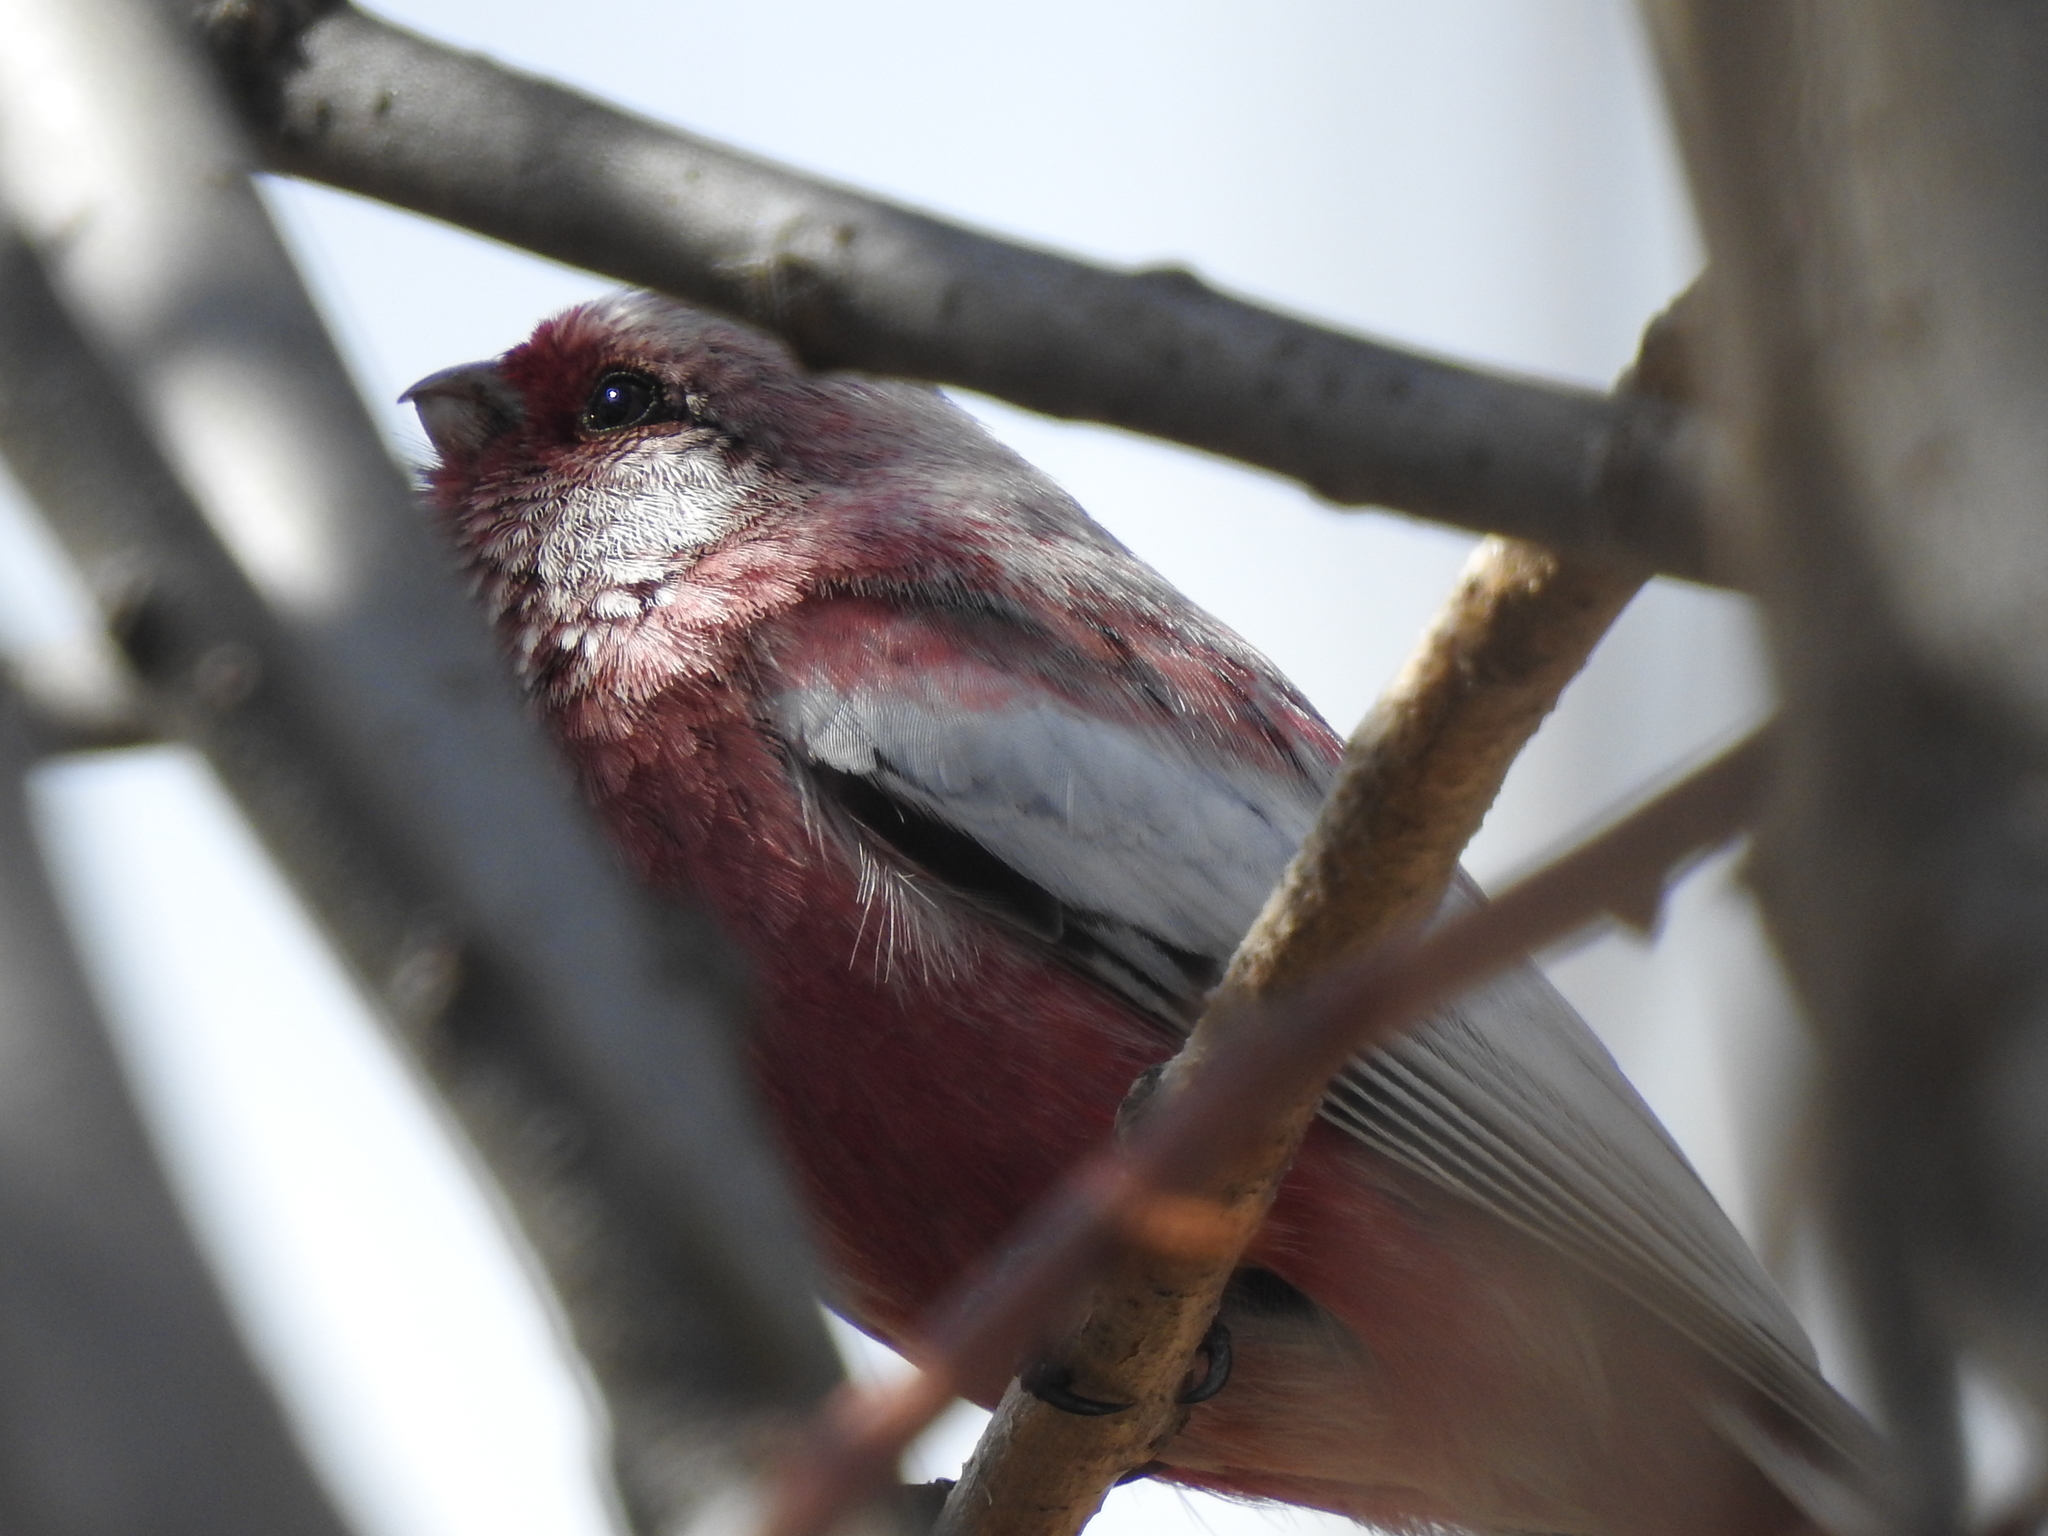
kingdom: Animalia
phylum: Chordata
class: Aves
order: Passeriformes
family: Fringillidae
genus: Carpodacus
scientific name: Carpodacus sibiricus
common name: Long-tailed rosefinch
